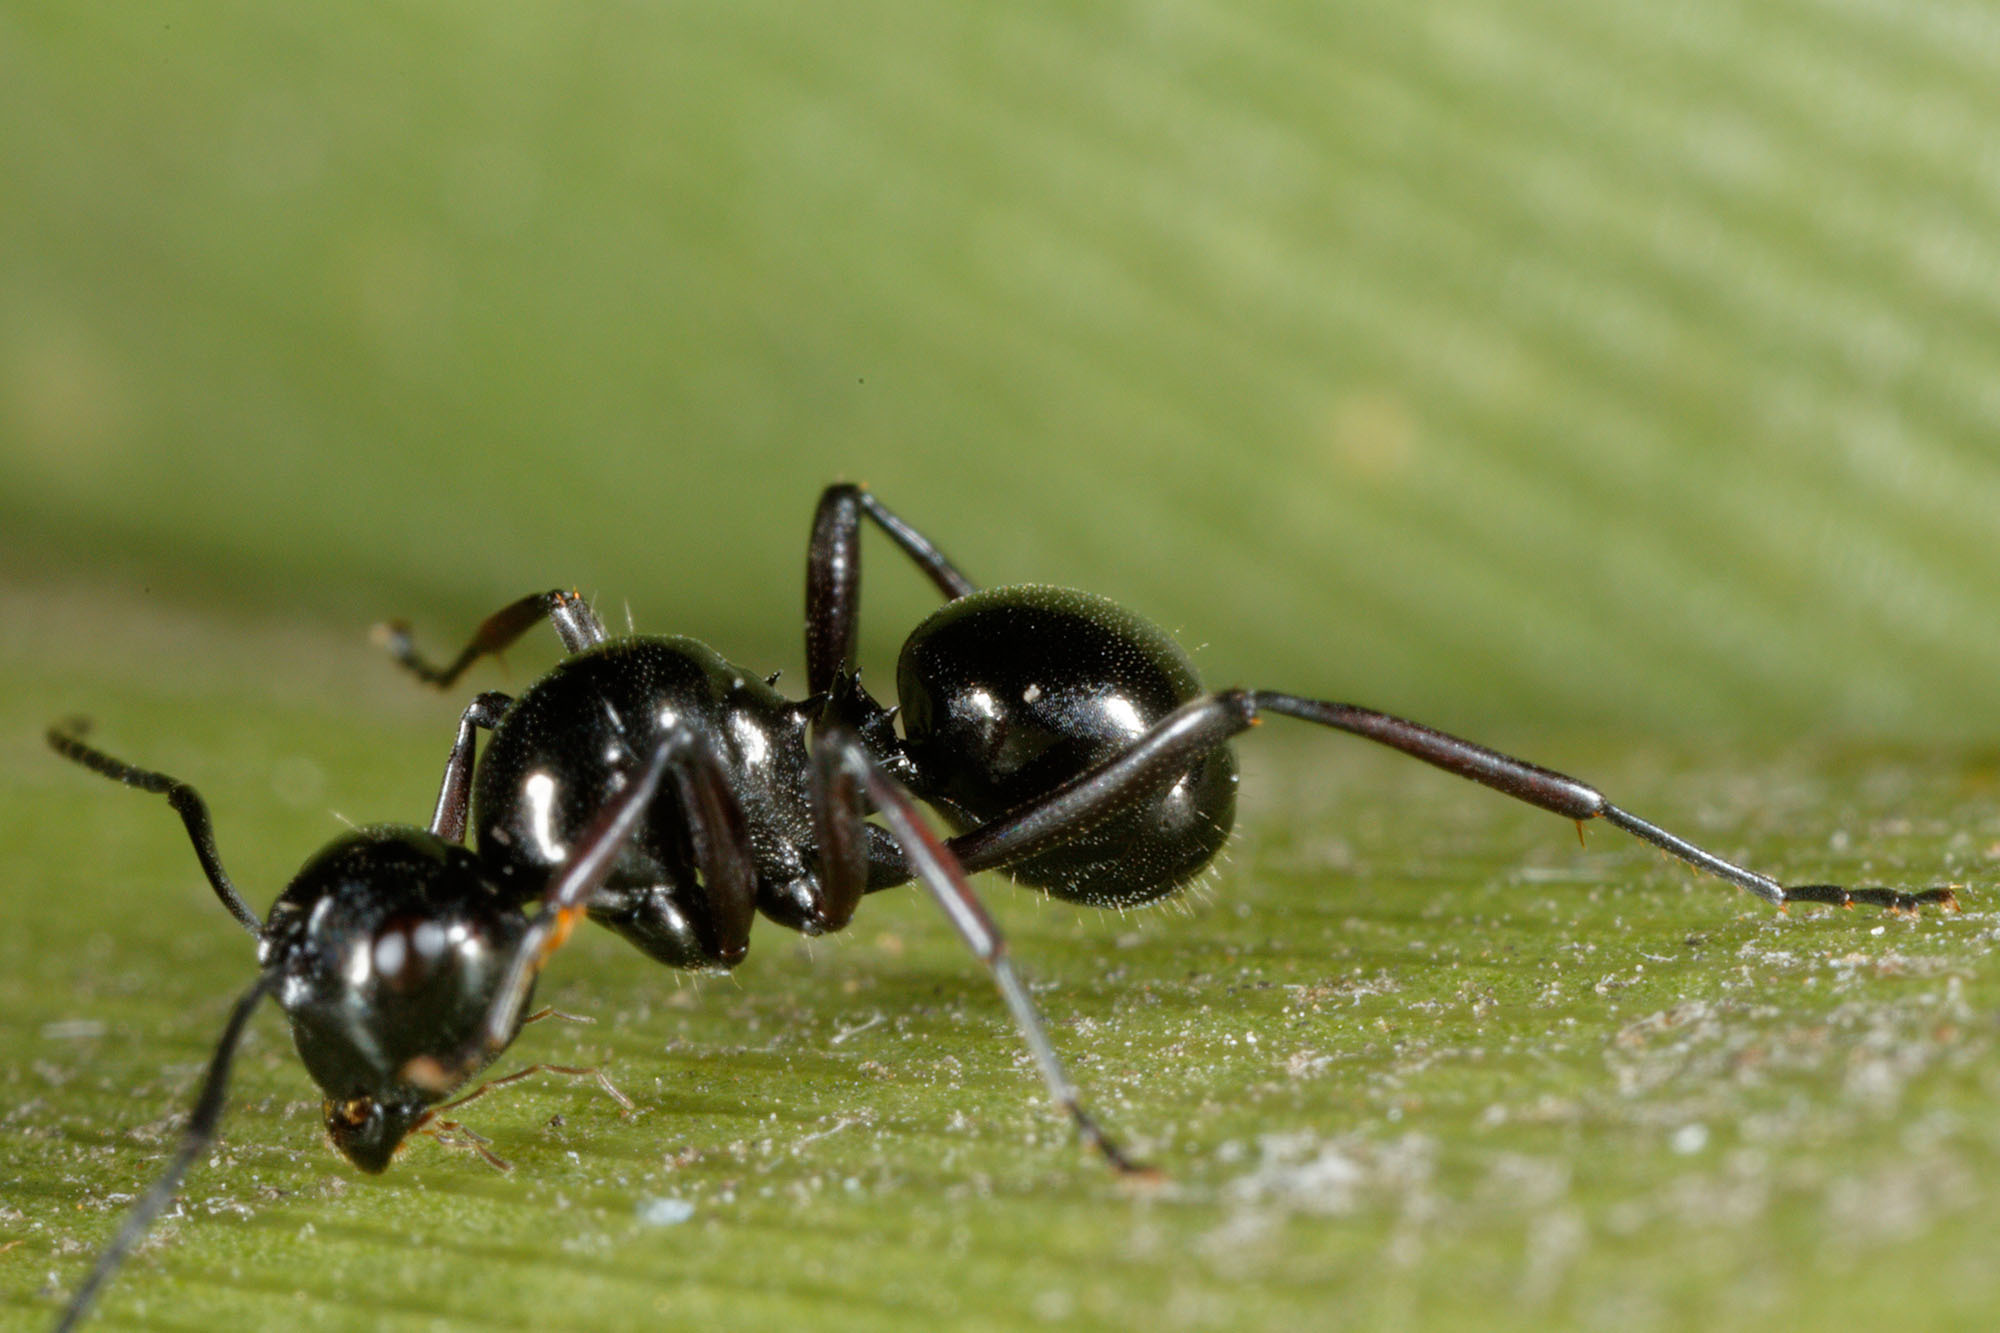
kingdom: Animalia
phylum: Arthropoda
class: Insecta
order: Hymenoptera
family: Formicidae
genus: Polyrhachis
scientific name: Polyrhachis australis
